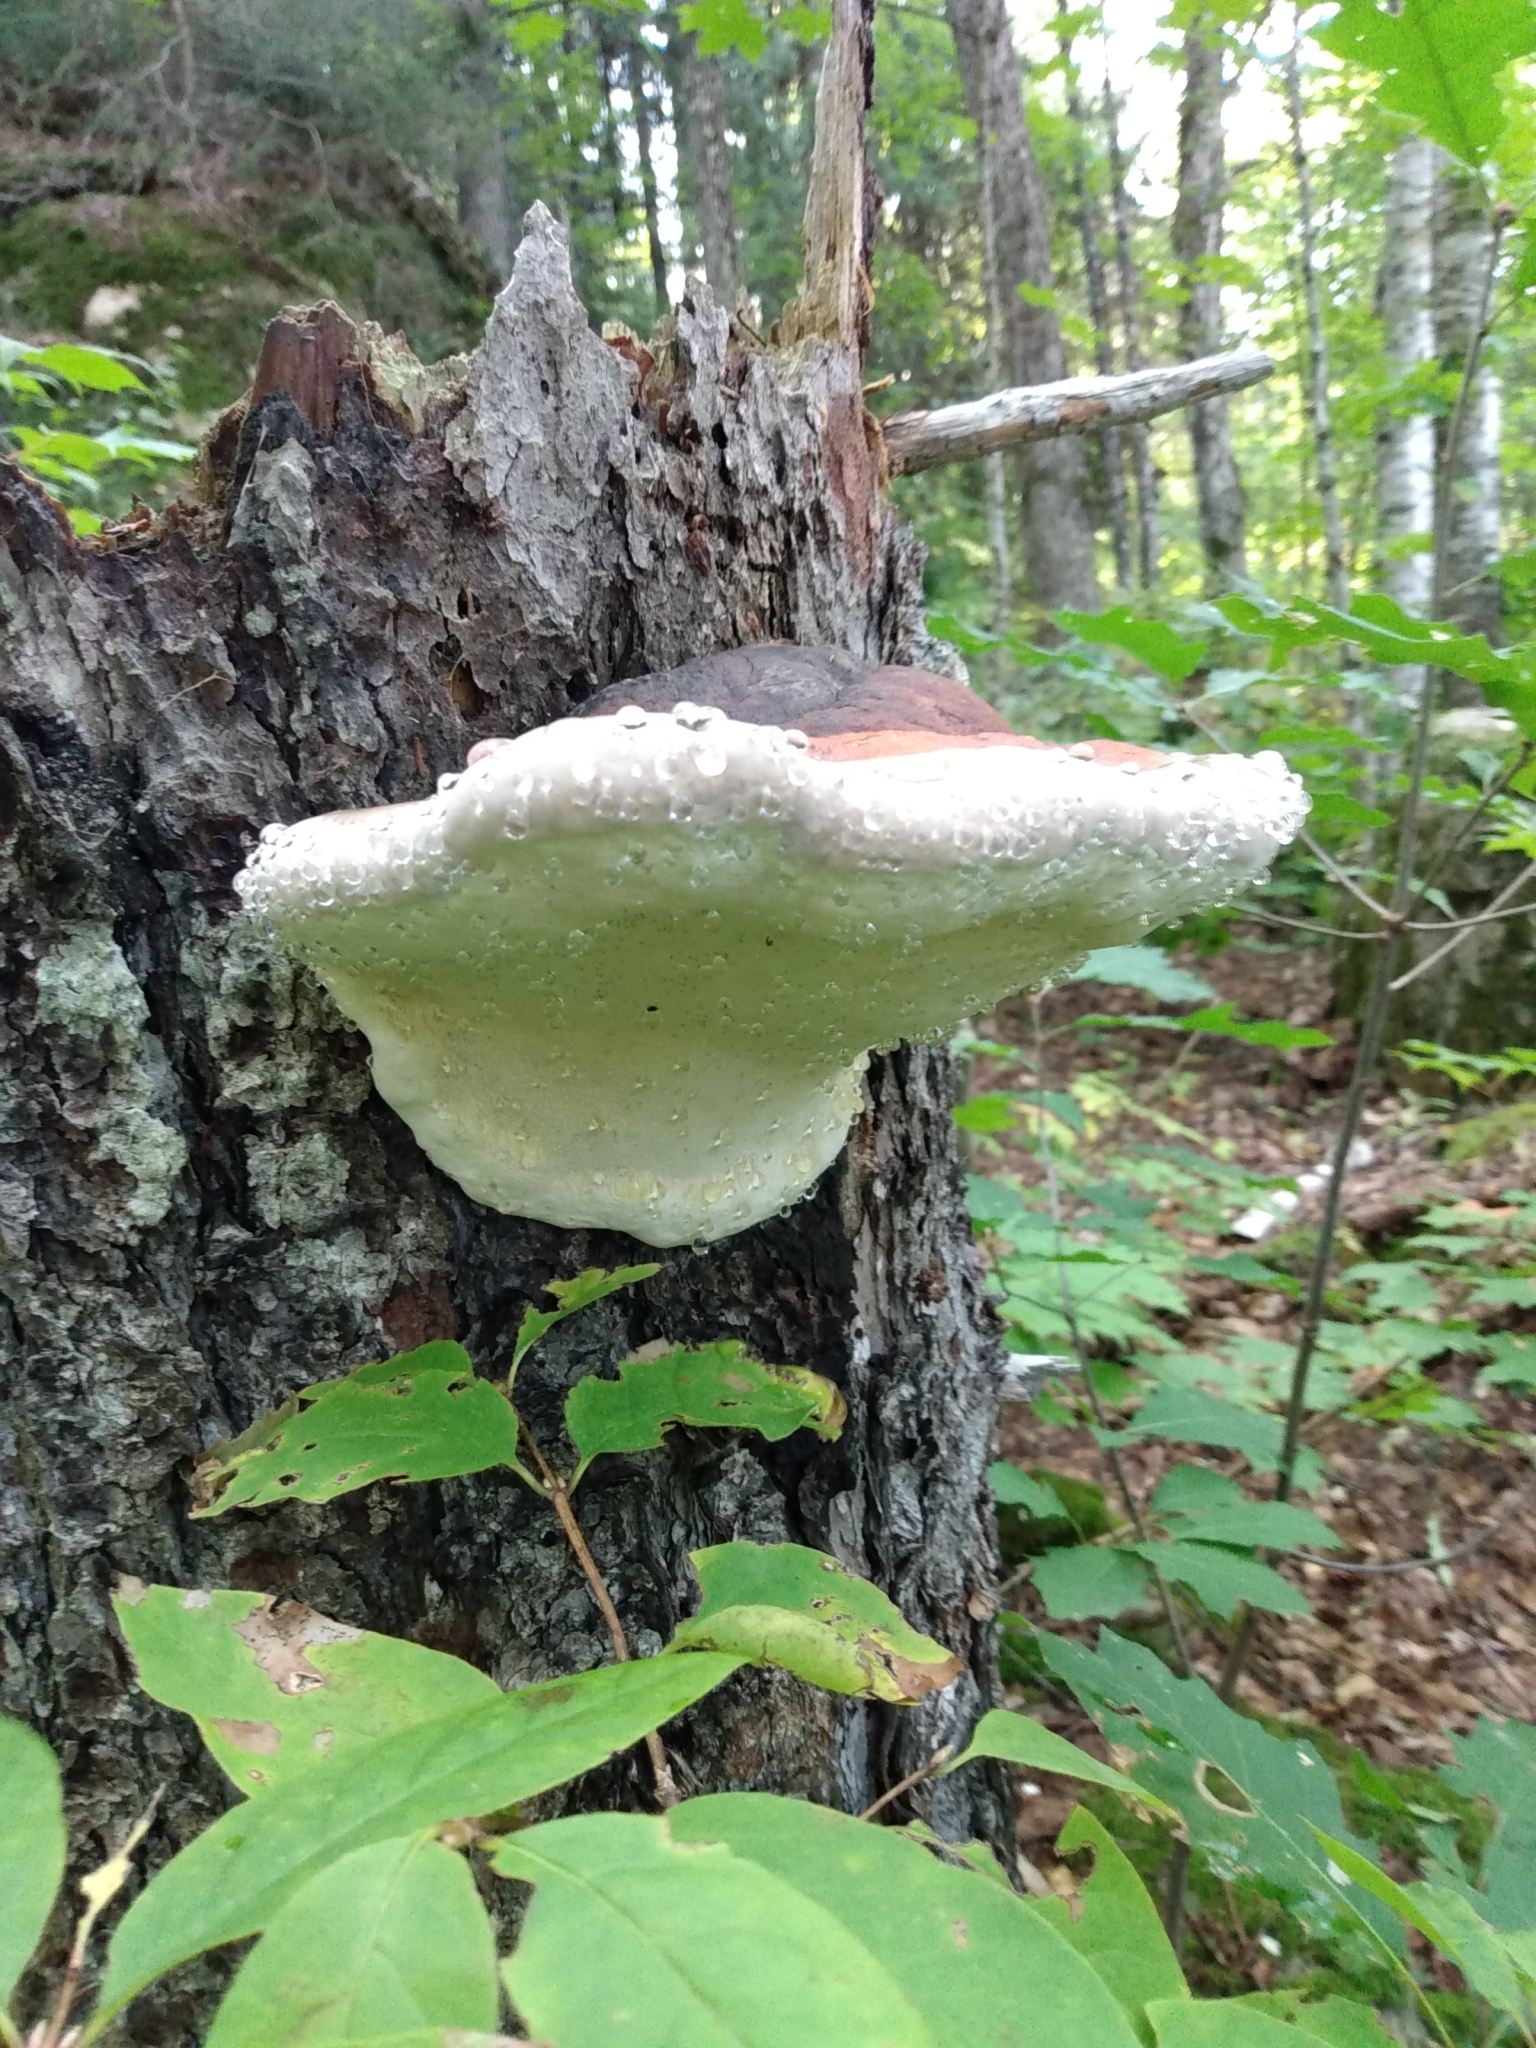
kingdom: Fungi
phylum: Basidiomycota
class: Agaricomycetes
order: Polyporales
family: Fomitopsidaceae
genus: Fomitopsis
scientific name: Fomitopsis mounceae
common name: Northern red belt
